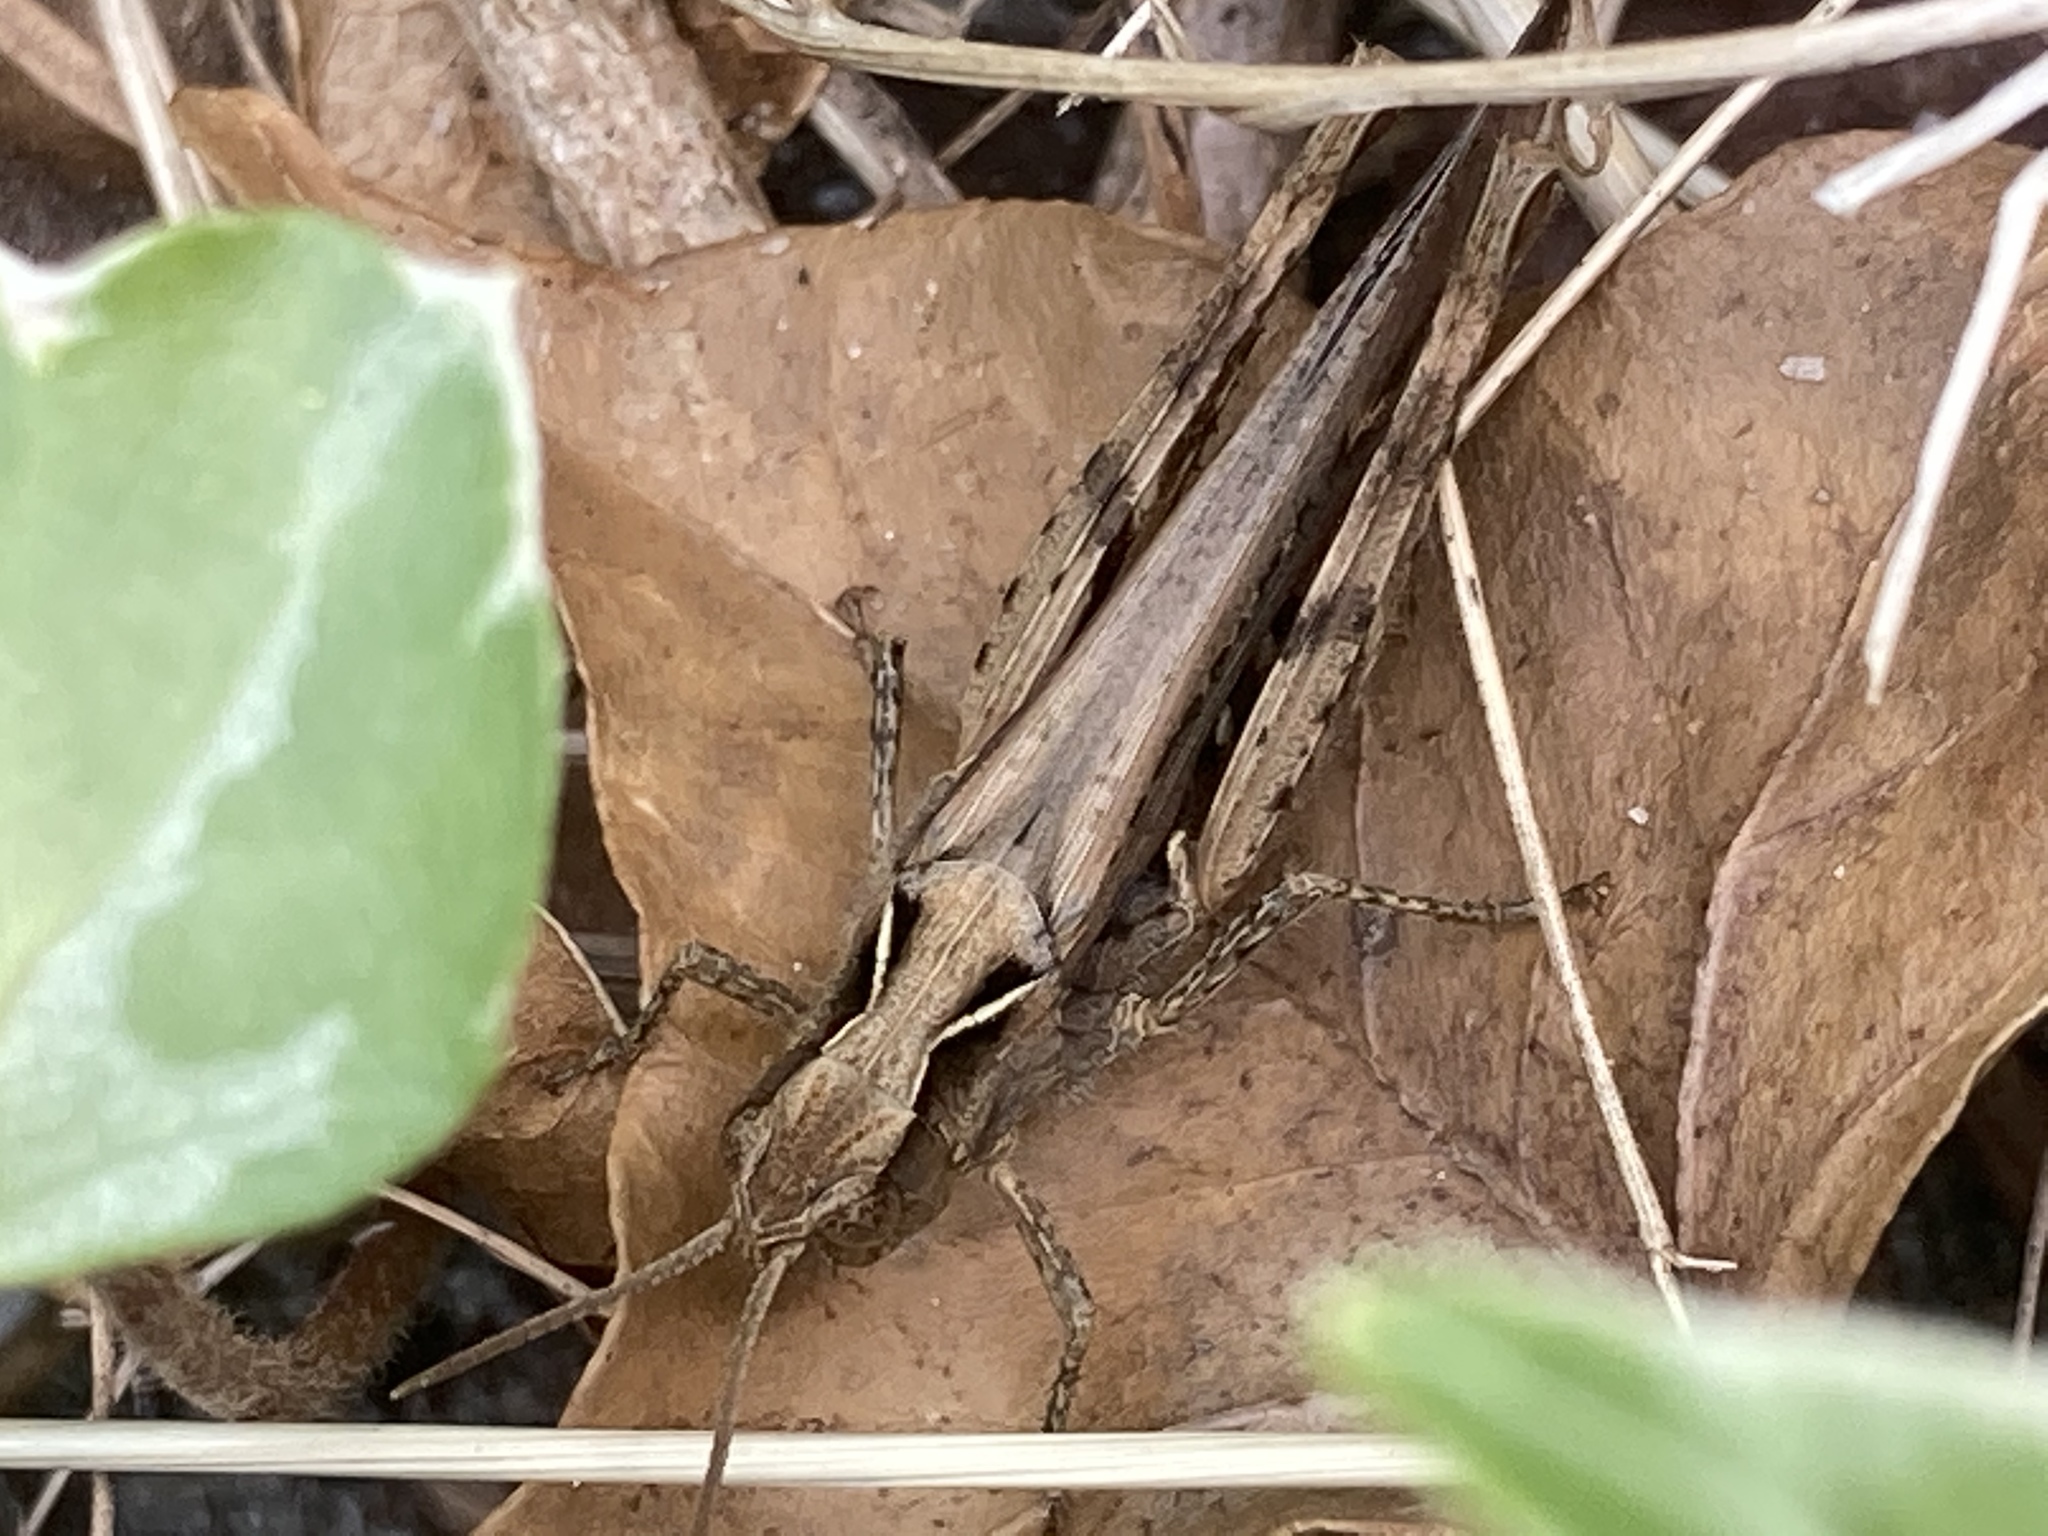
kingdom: Animalia
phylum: Arthropoda
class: Insecta
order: Orthoptera
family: Acrididae
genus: Chorthippus
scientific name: Chorthippus brunneus
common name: Field grasshopper
